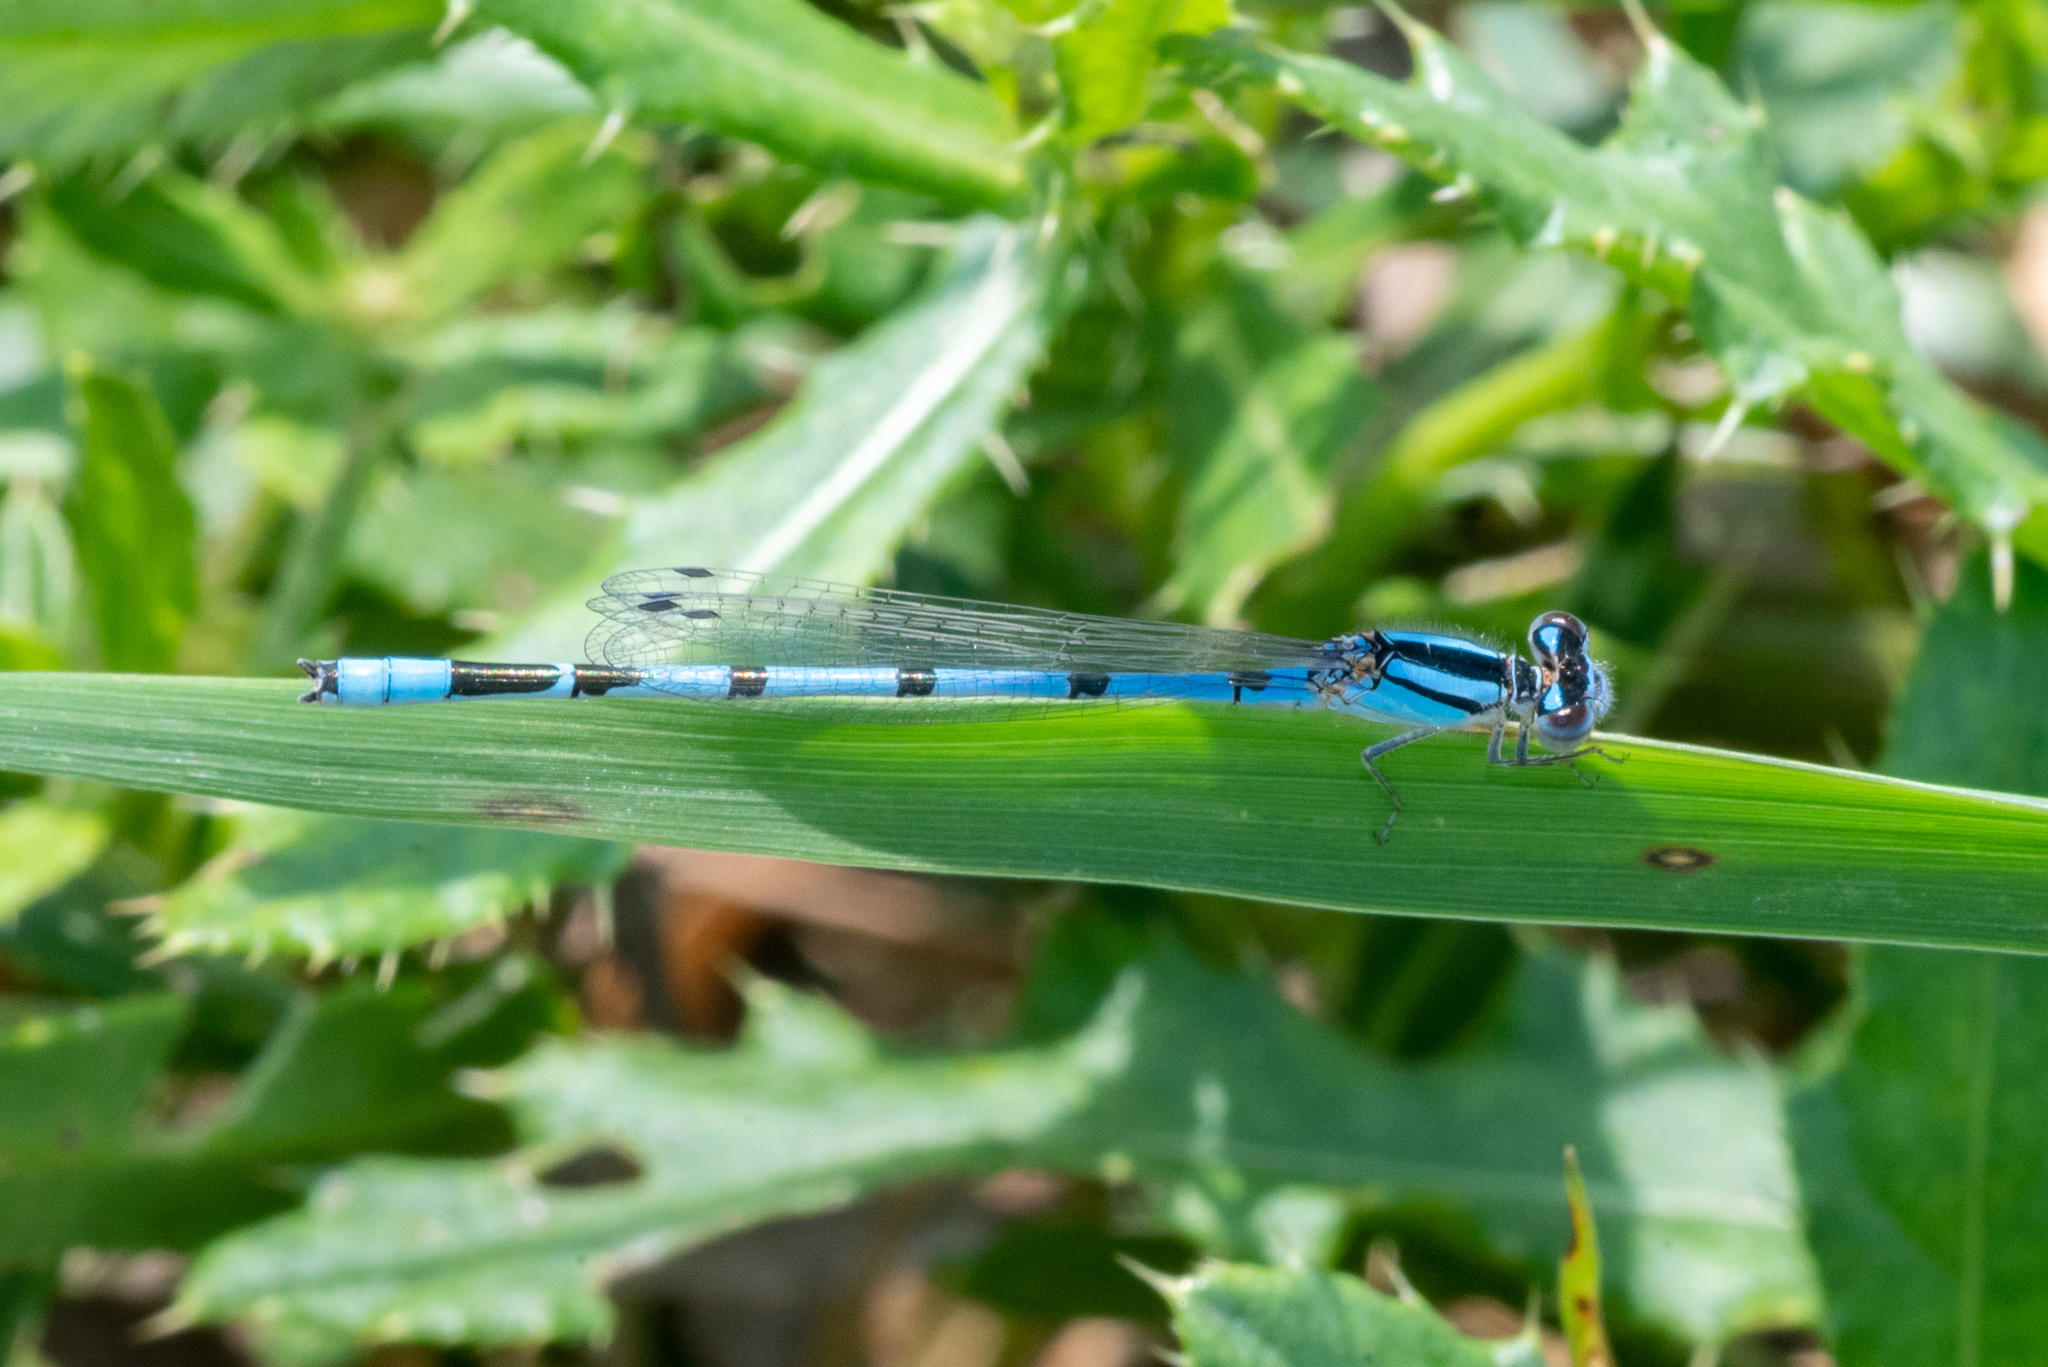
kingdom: Animalia
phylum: Arthropoda
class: Insecta
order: Odonata
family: Coenagrionidae
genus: Enallagma
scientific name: Enallagma civile
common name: Damselfly
